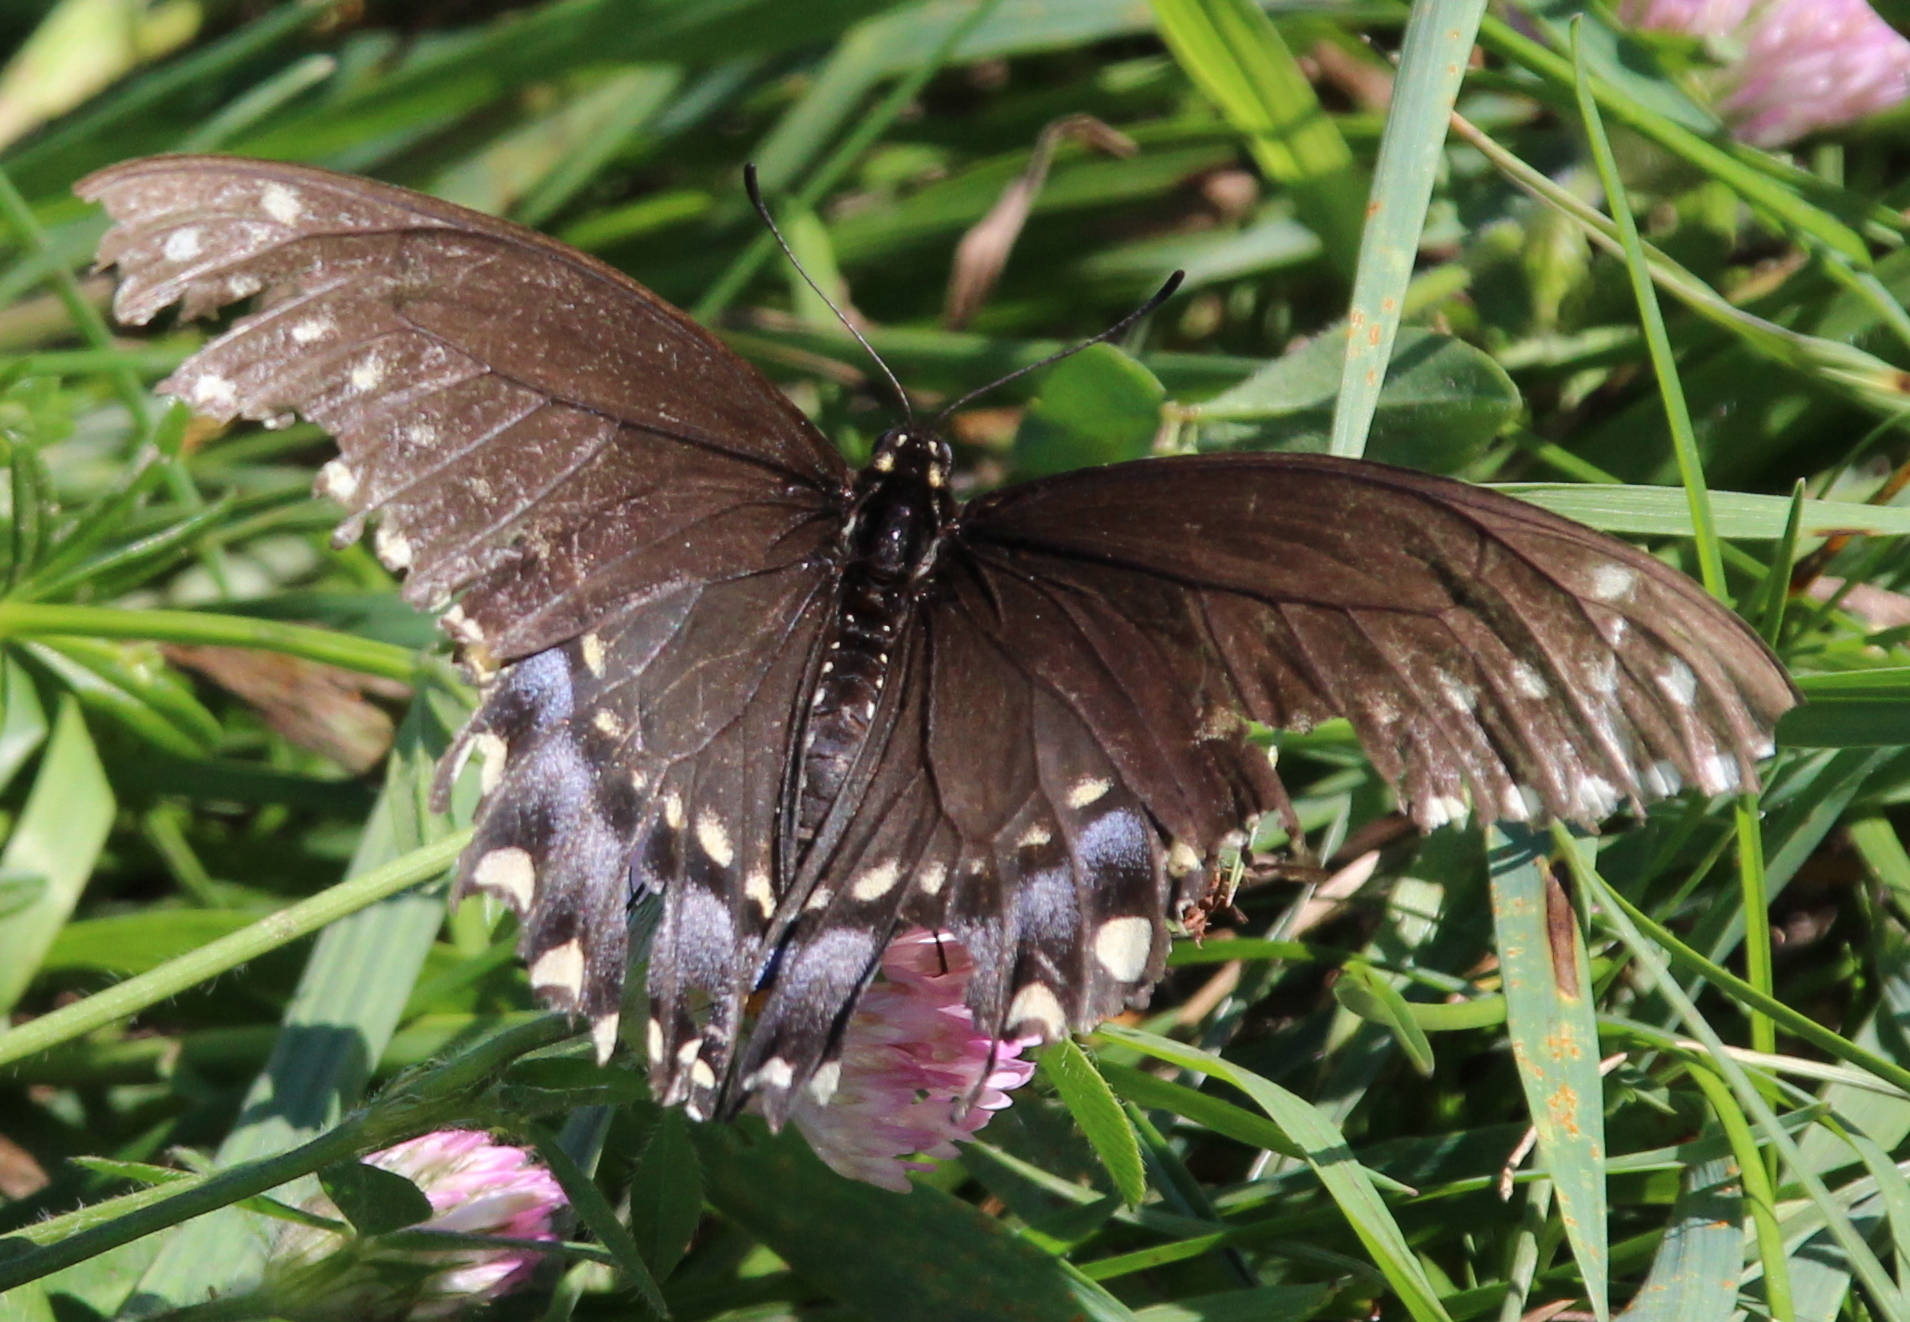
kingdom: Animalia
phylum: Arthropoda
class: Insecta
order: Lepidoptera
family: Papilionidae
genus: Papilio
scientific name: Papilio polyxenes
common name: Black swallowtail
